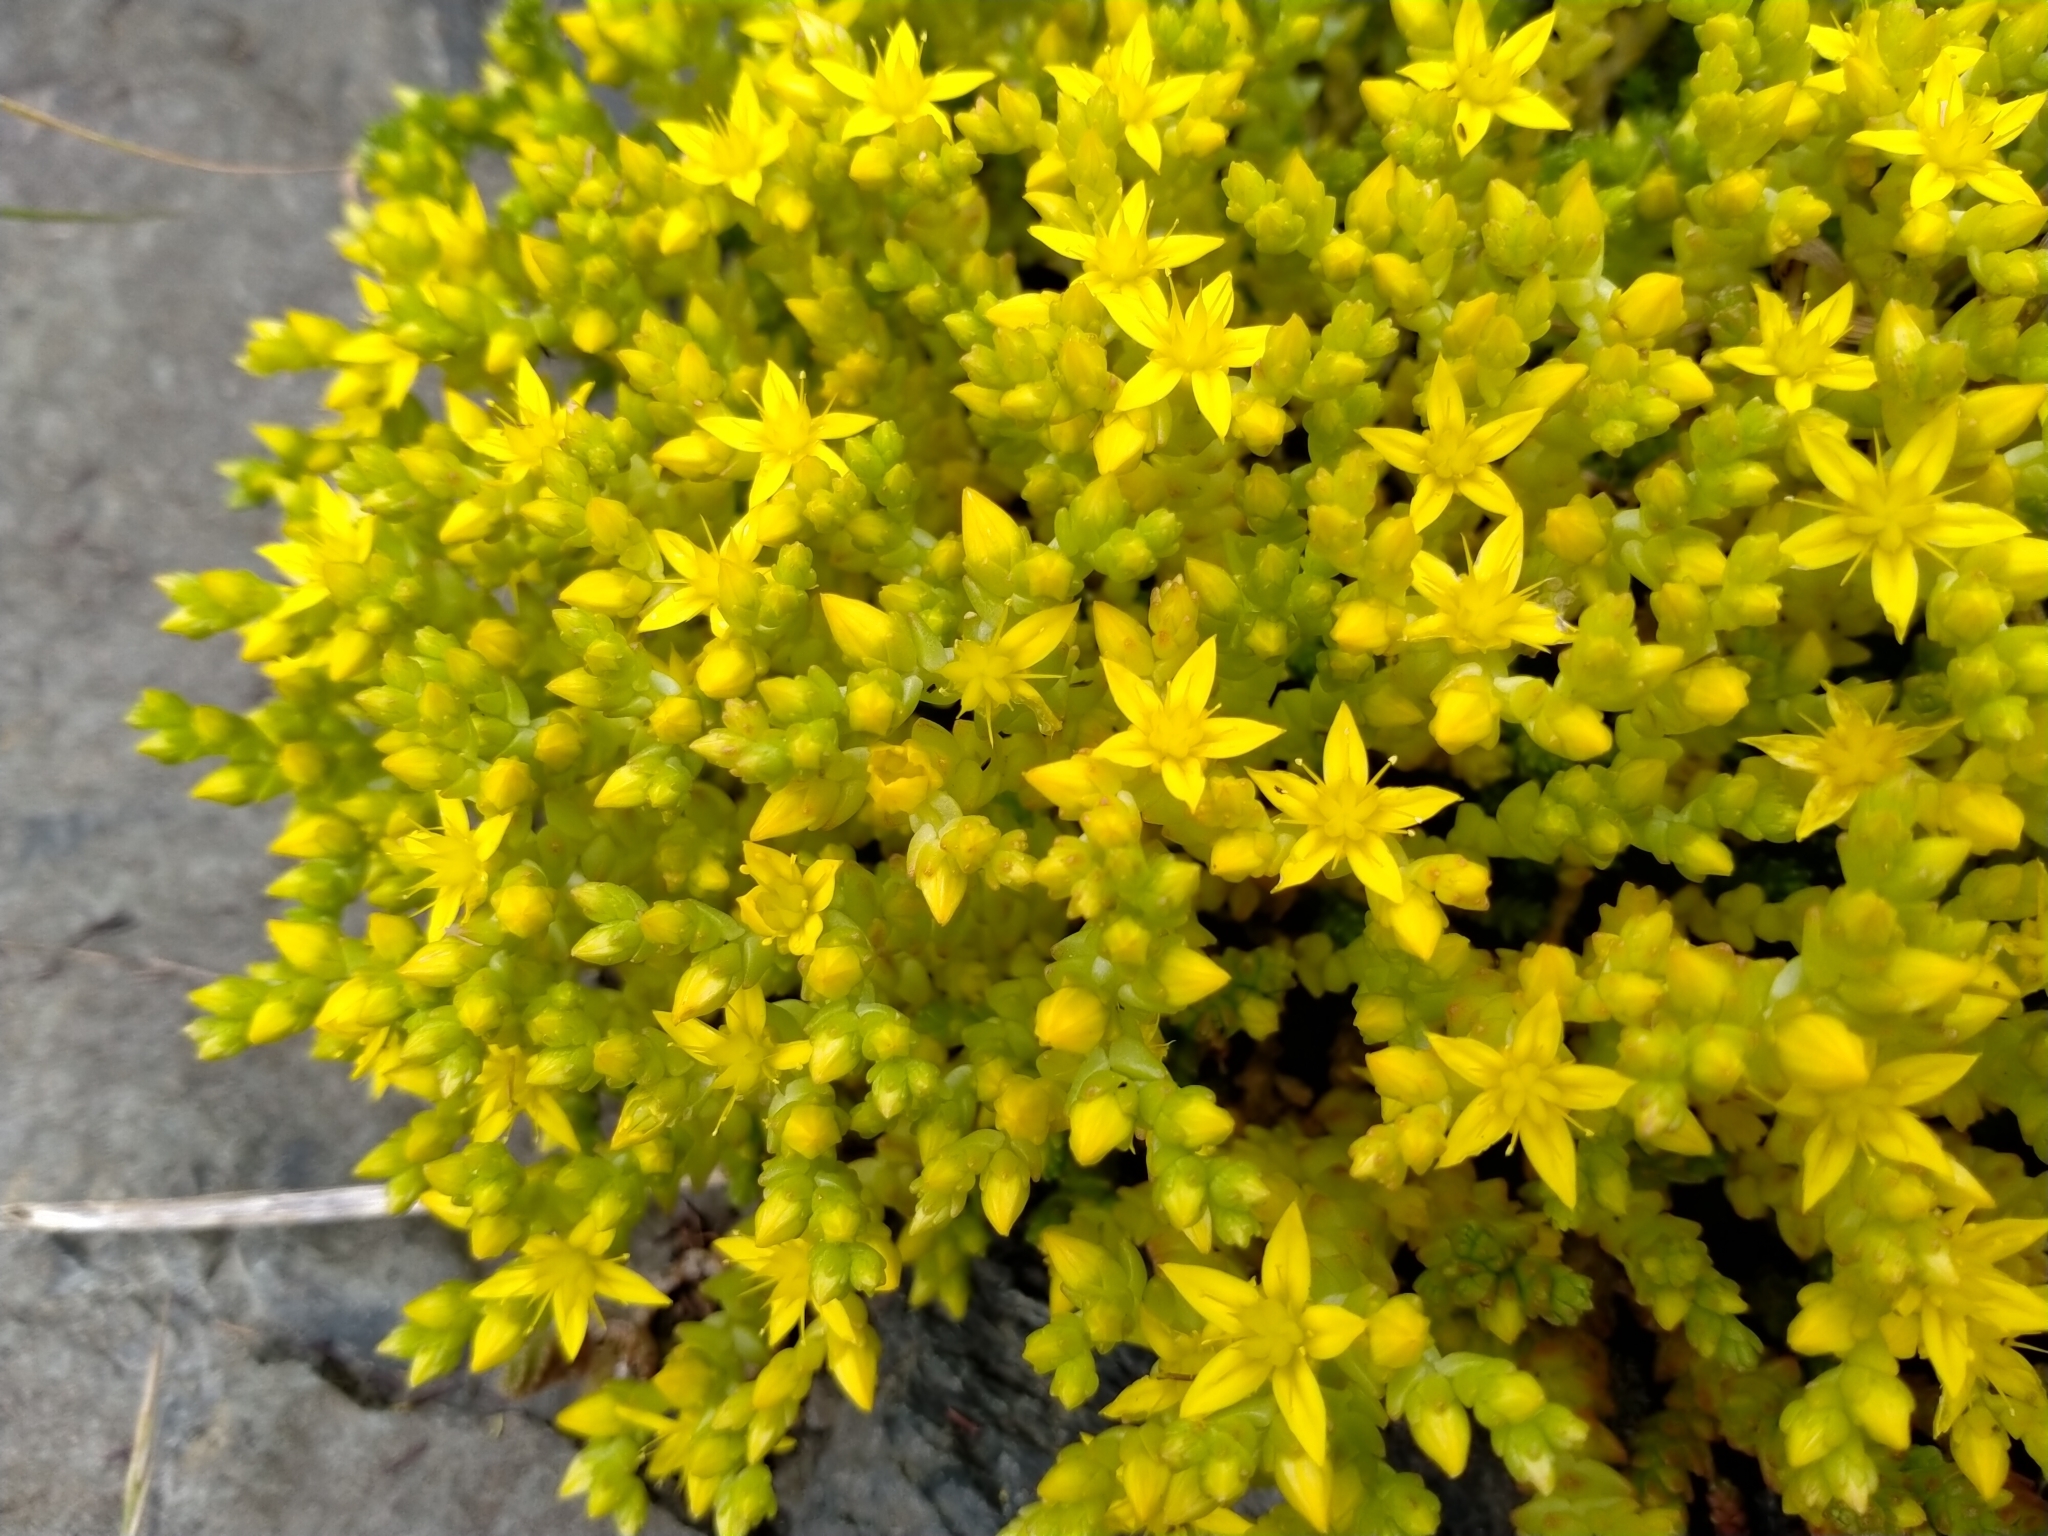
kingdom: Plantae
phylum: Tracheophyta
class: Magnoliopsida
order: Saxifragales
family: Crassulaceae
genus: Sedum
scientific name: Sedum acre
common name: Biting stonecrop
